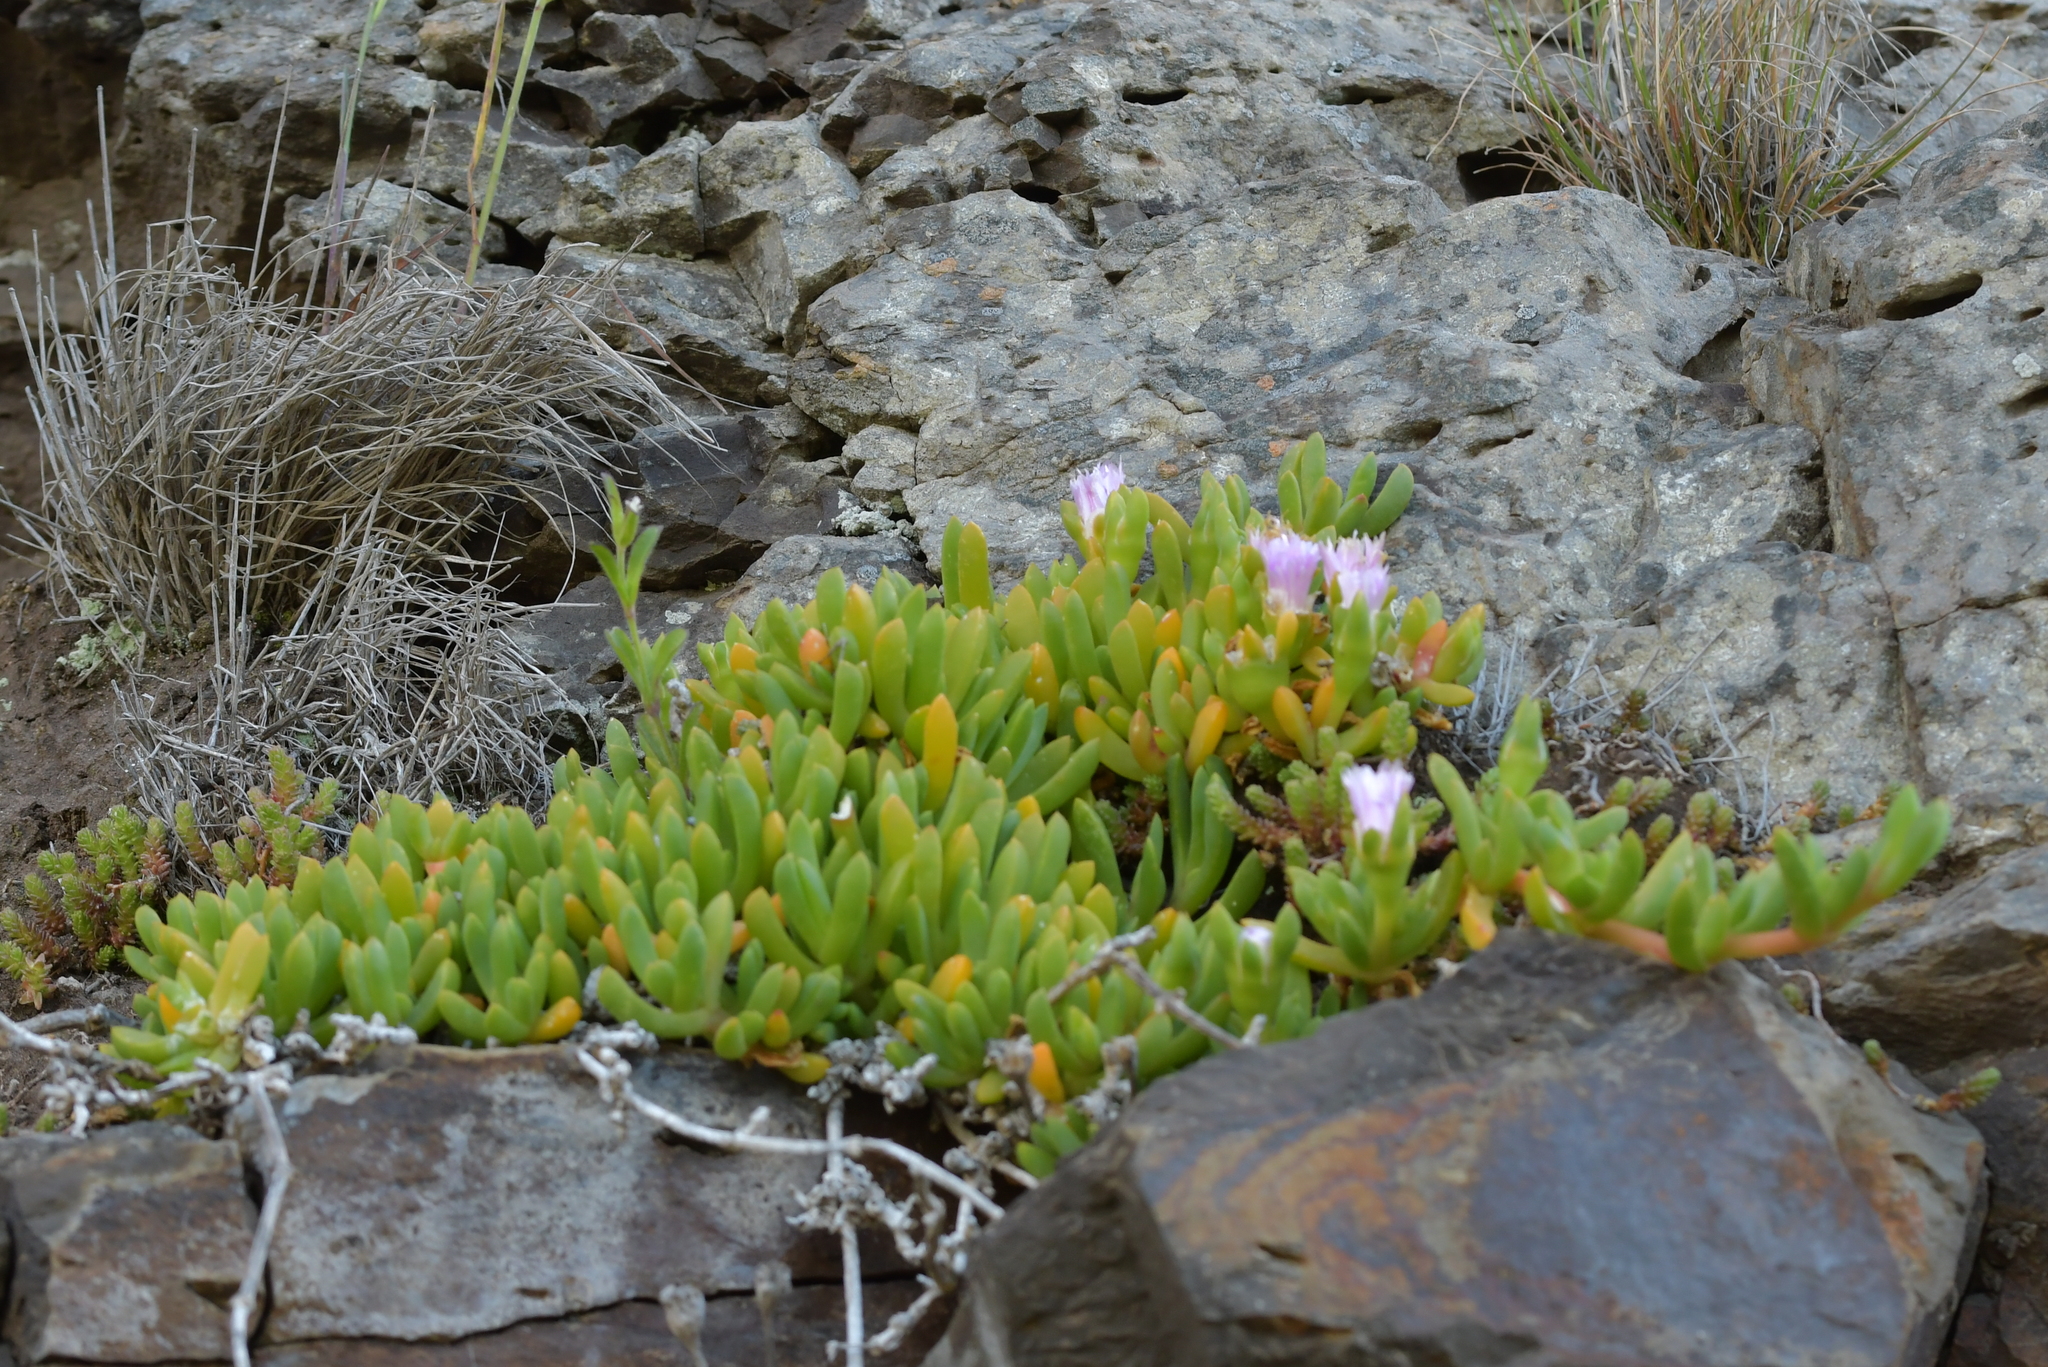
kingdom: Plantae
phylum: Tracheophyta
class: Magnoliopsida
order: Caryophyllales
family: Aizoaceae
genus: Disphyma
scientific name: Disphyma australe
